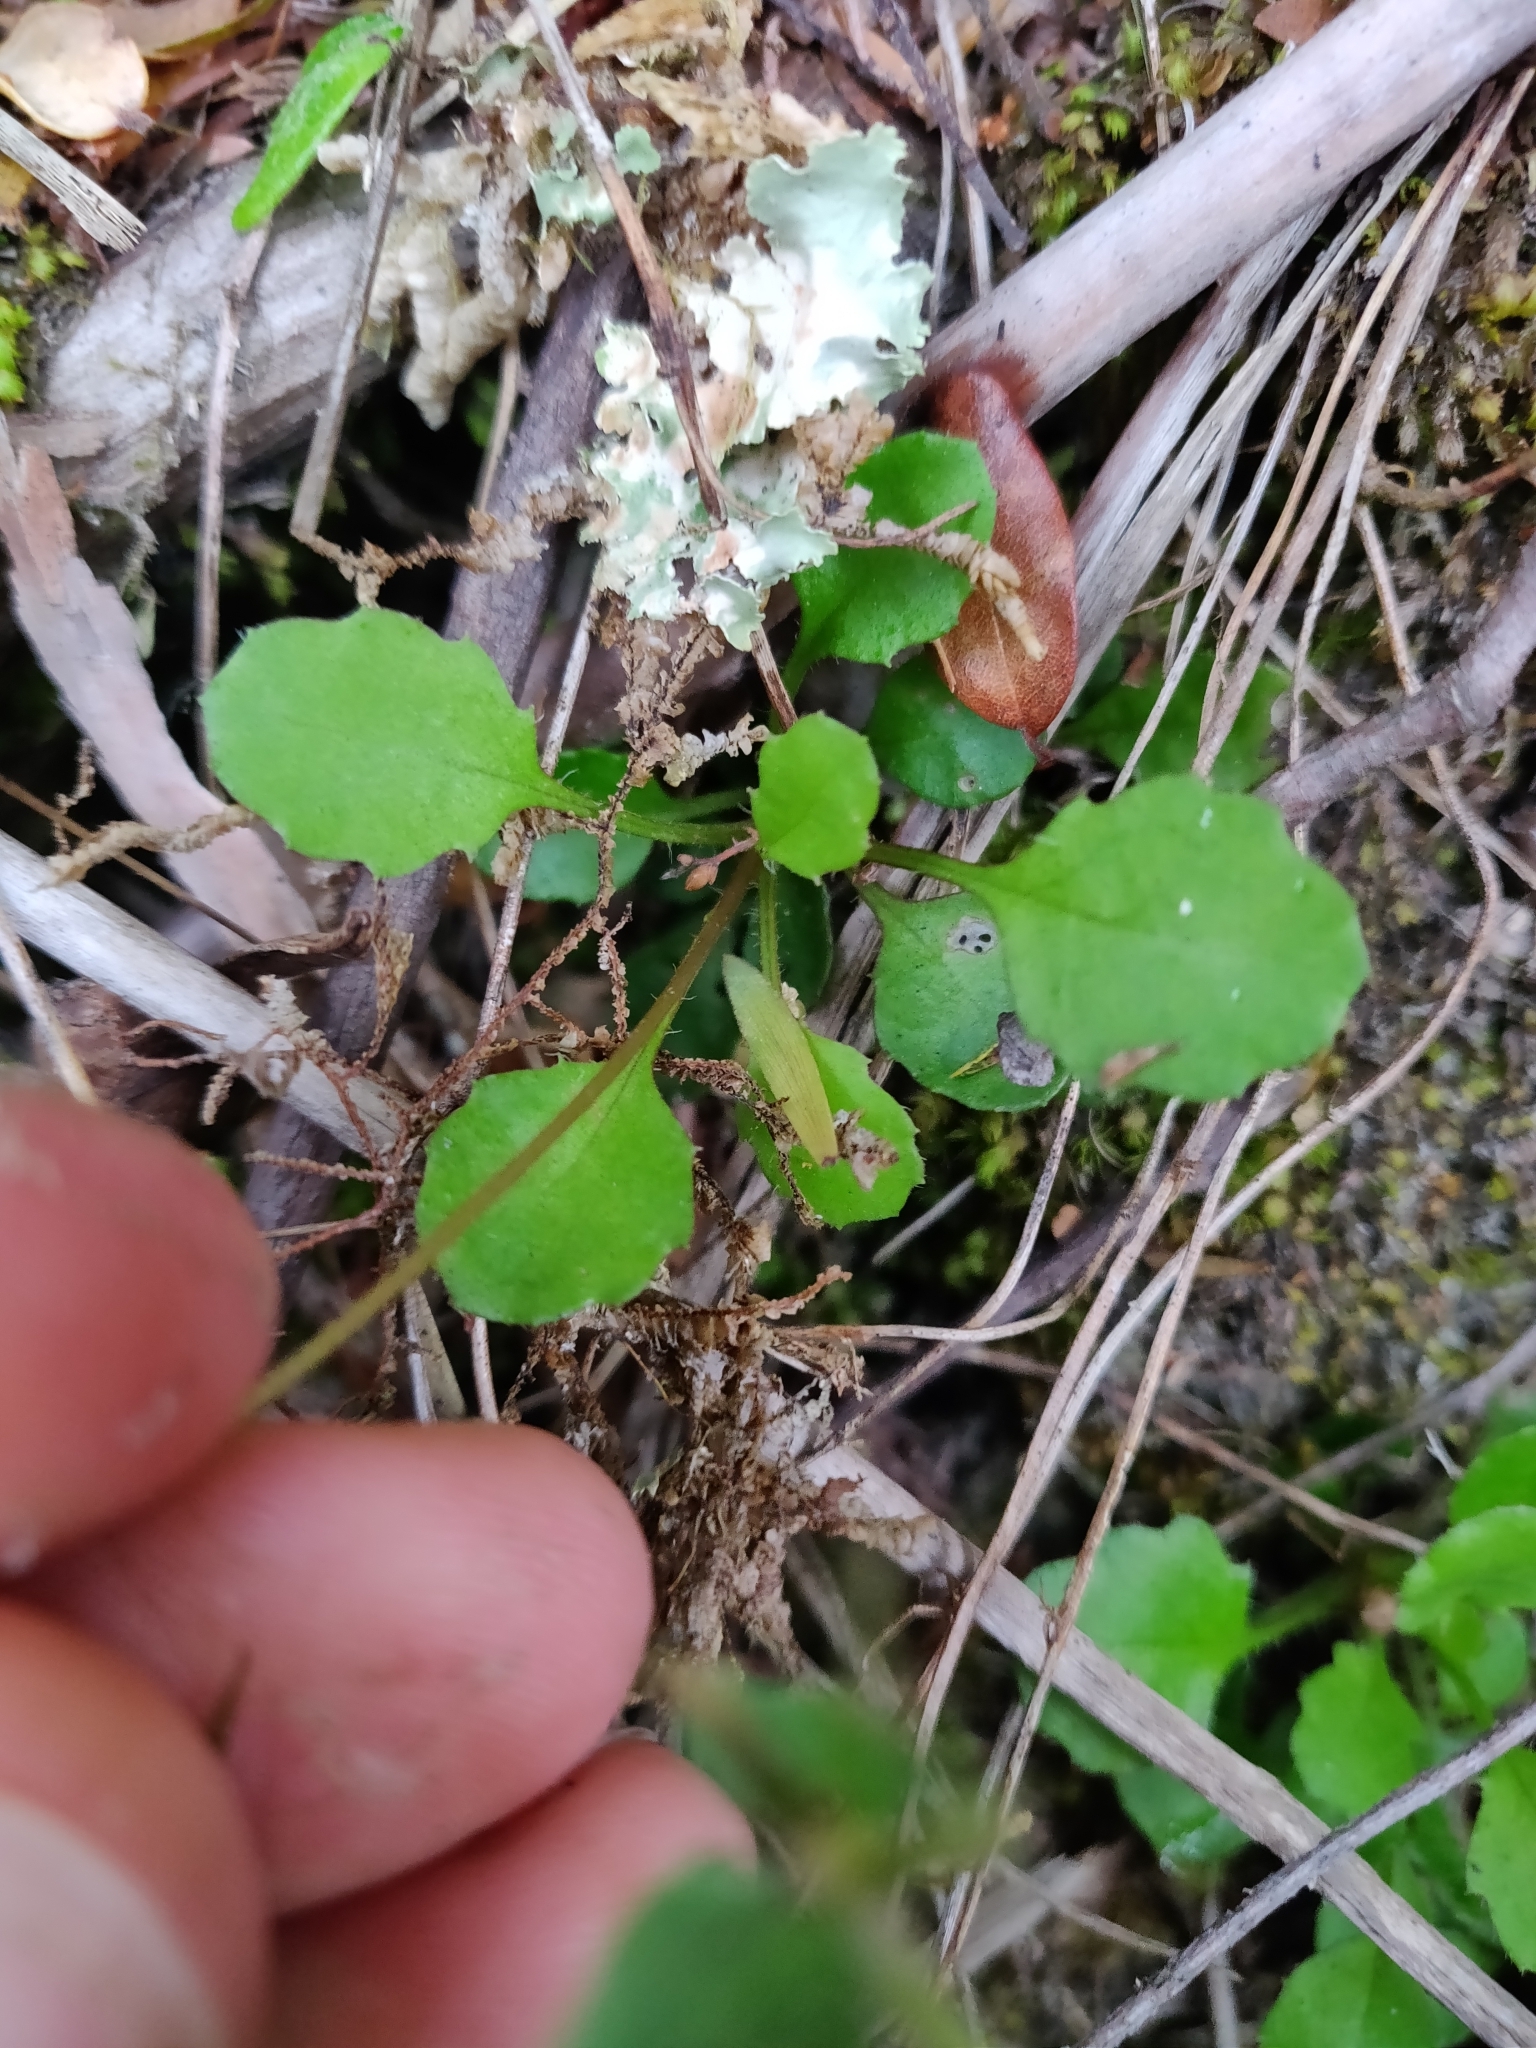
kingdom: Plantae
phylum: Tracheophyta
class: Magnoliopsida
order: Asterales
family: Asteraceae
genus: Lagenophora
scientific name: Lagenophora pumila
